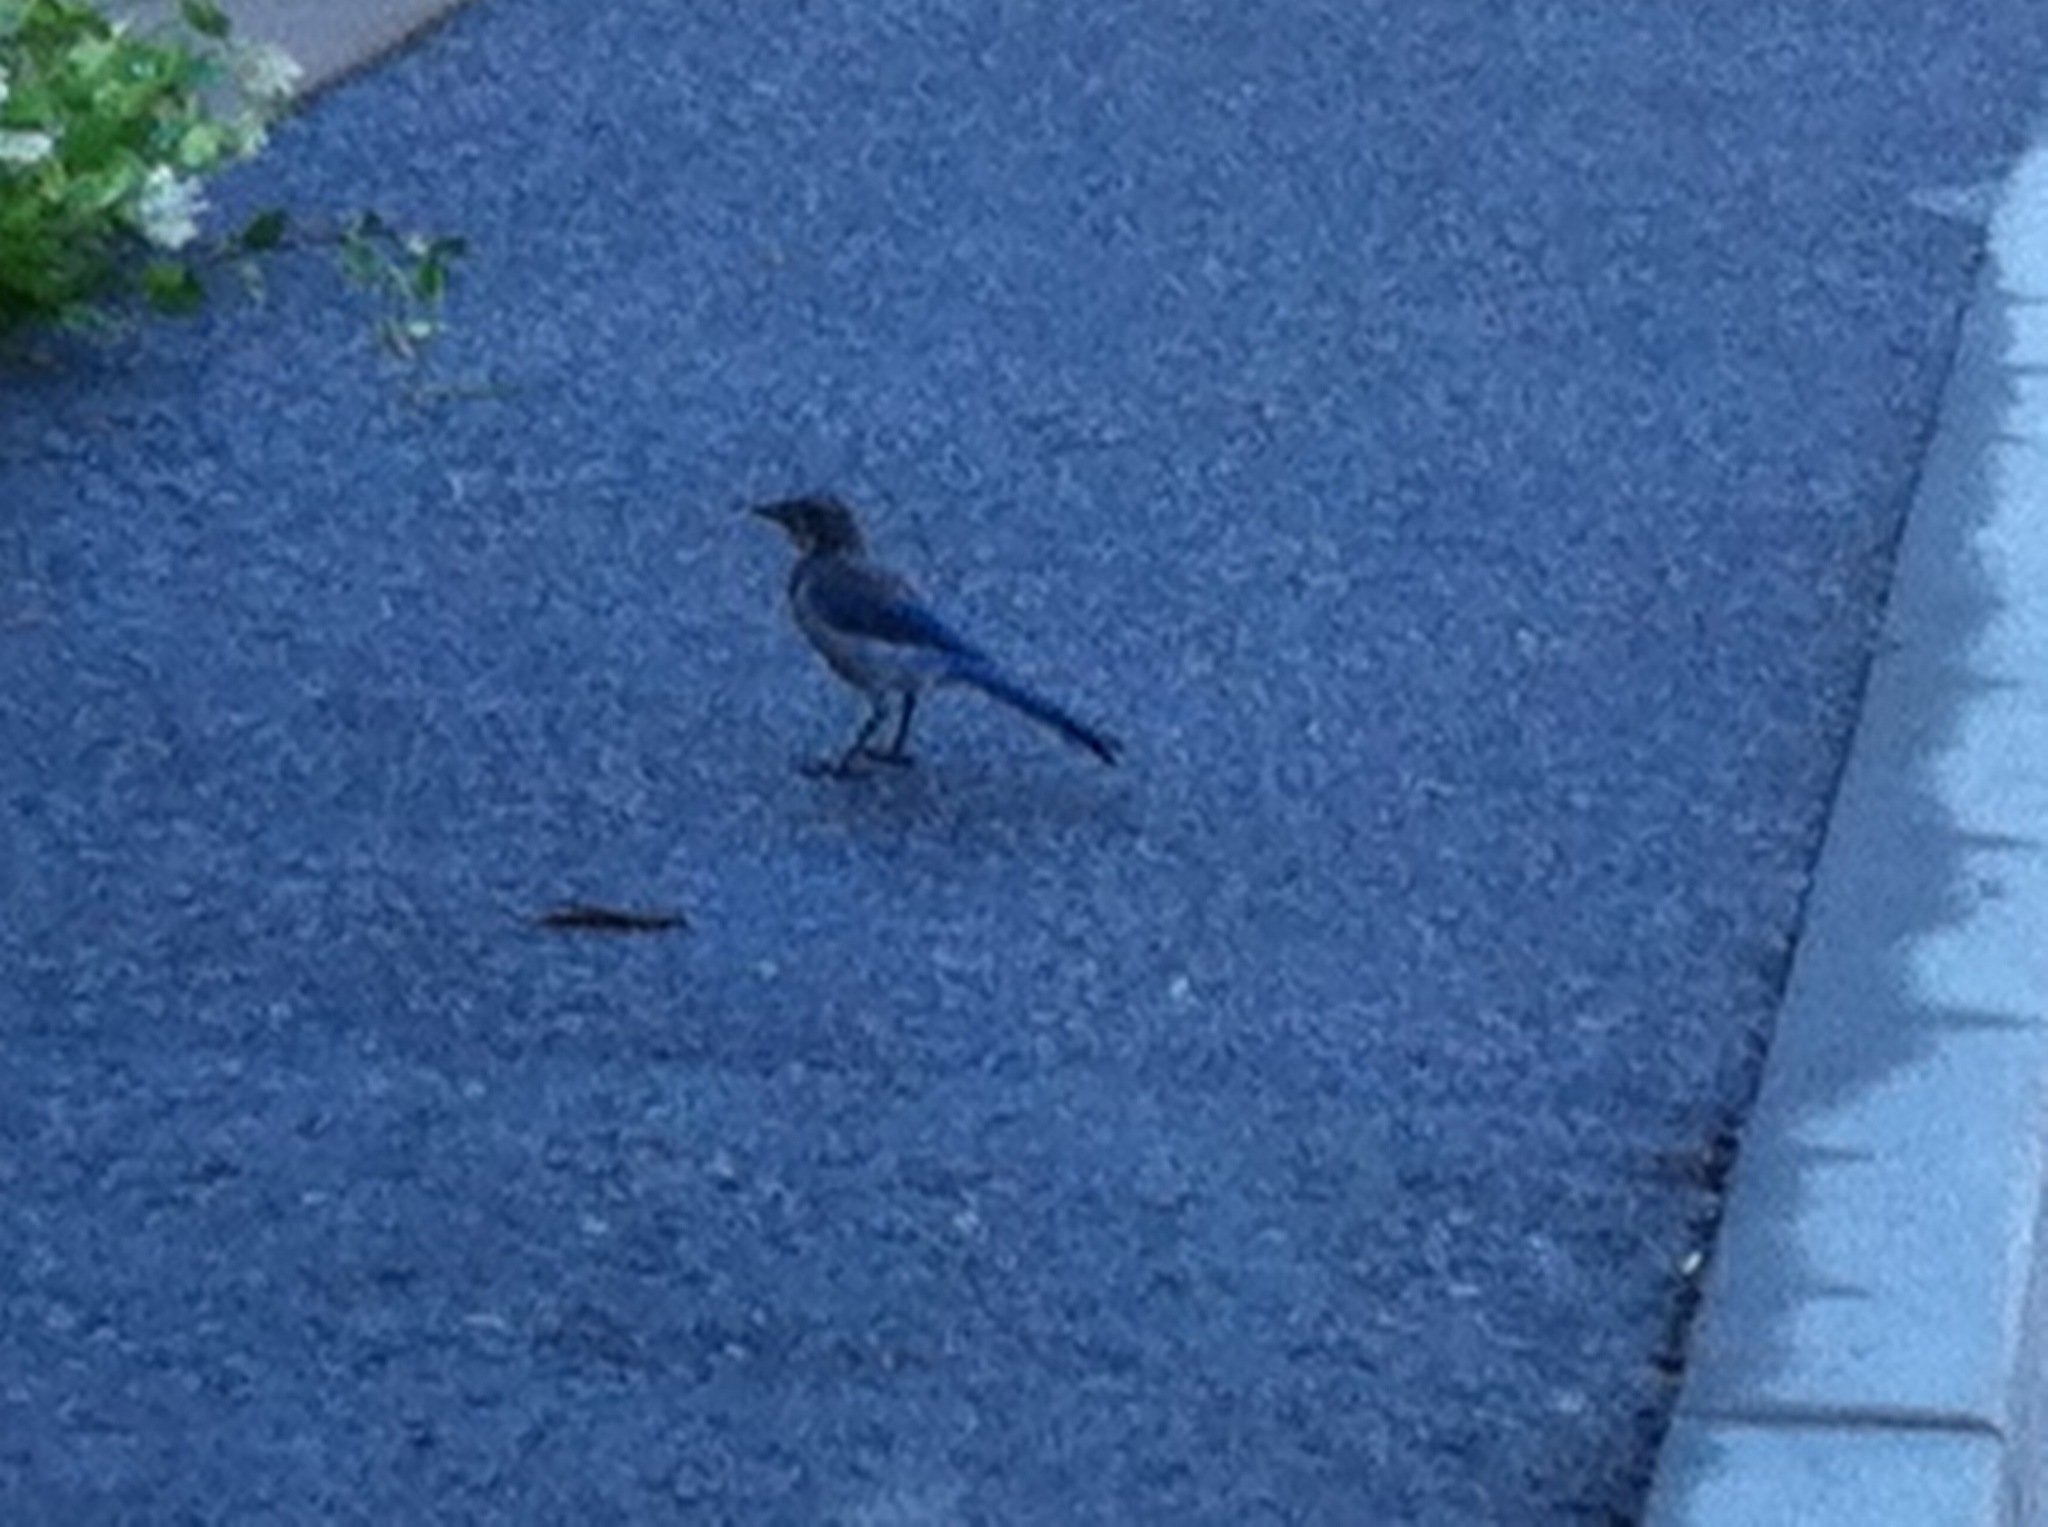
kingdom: Animalia
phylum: Chordata
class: Aves
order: Passeriformes
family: Corvidae
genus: Aphelocoma
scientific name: Aphelocoma californica
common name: California scrub-jay
